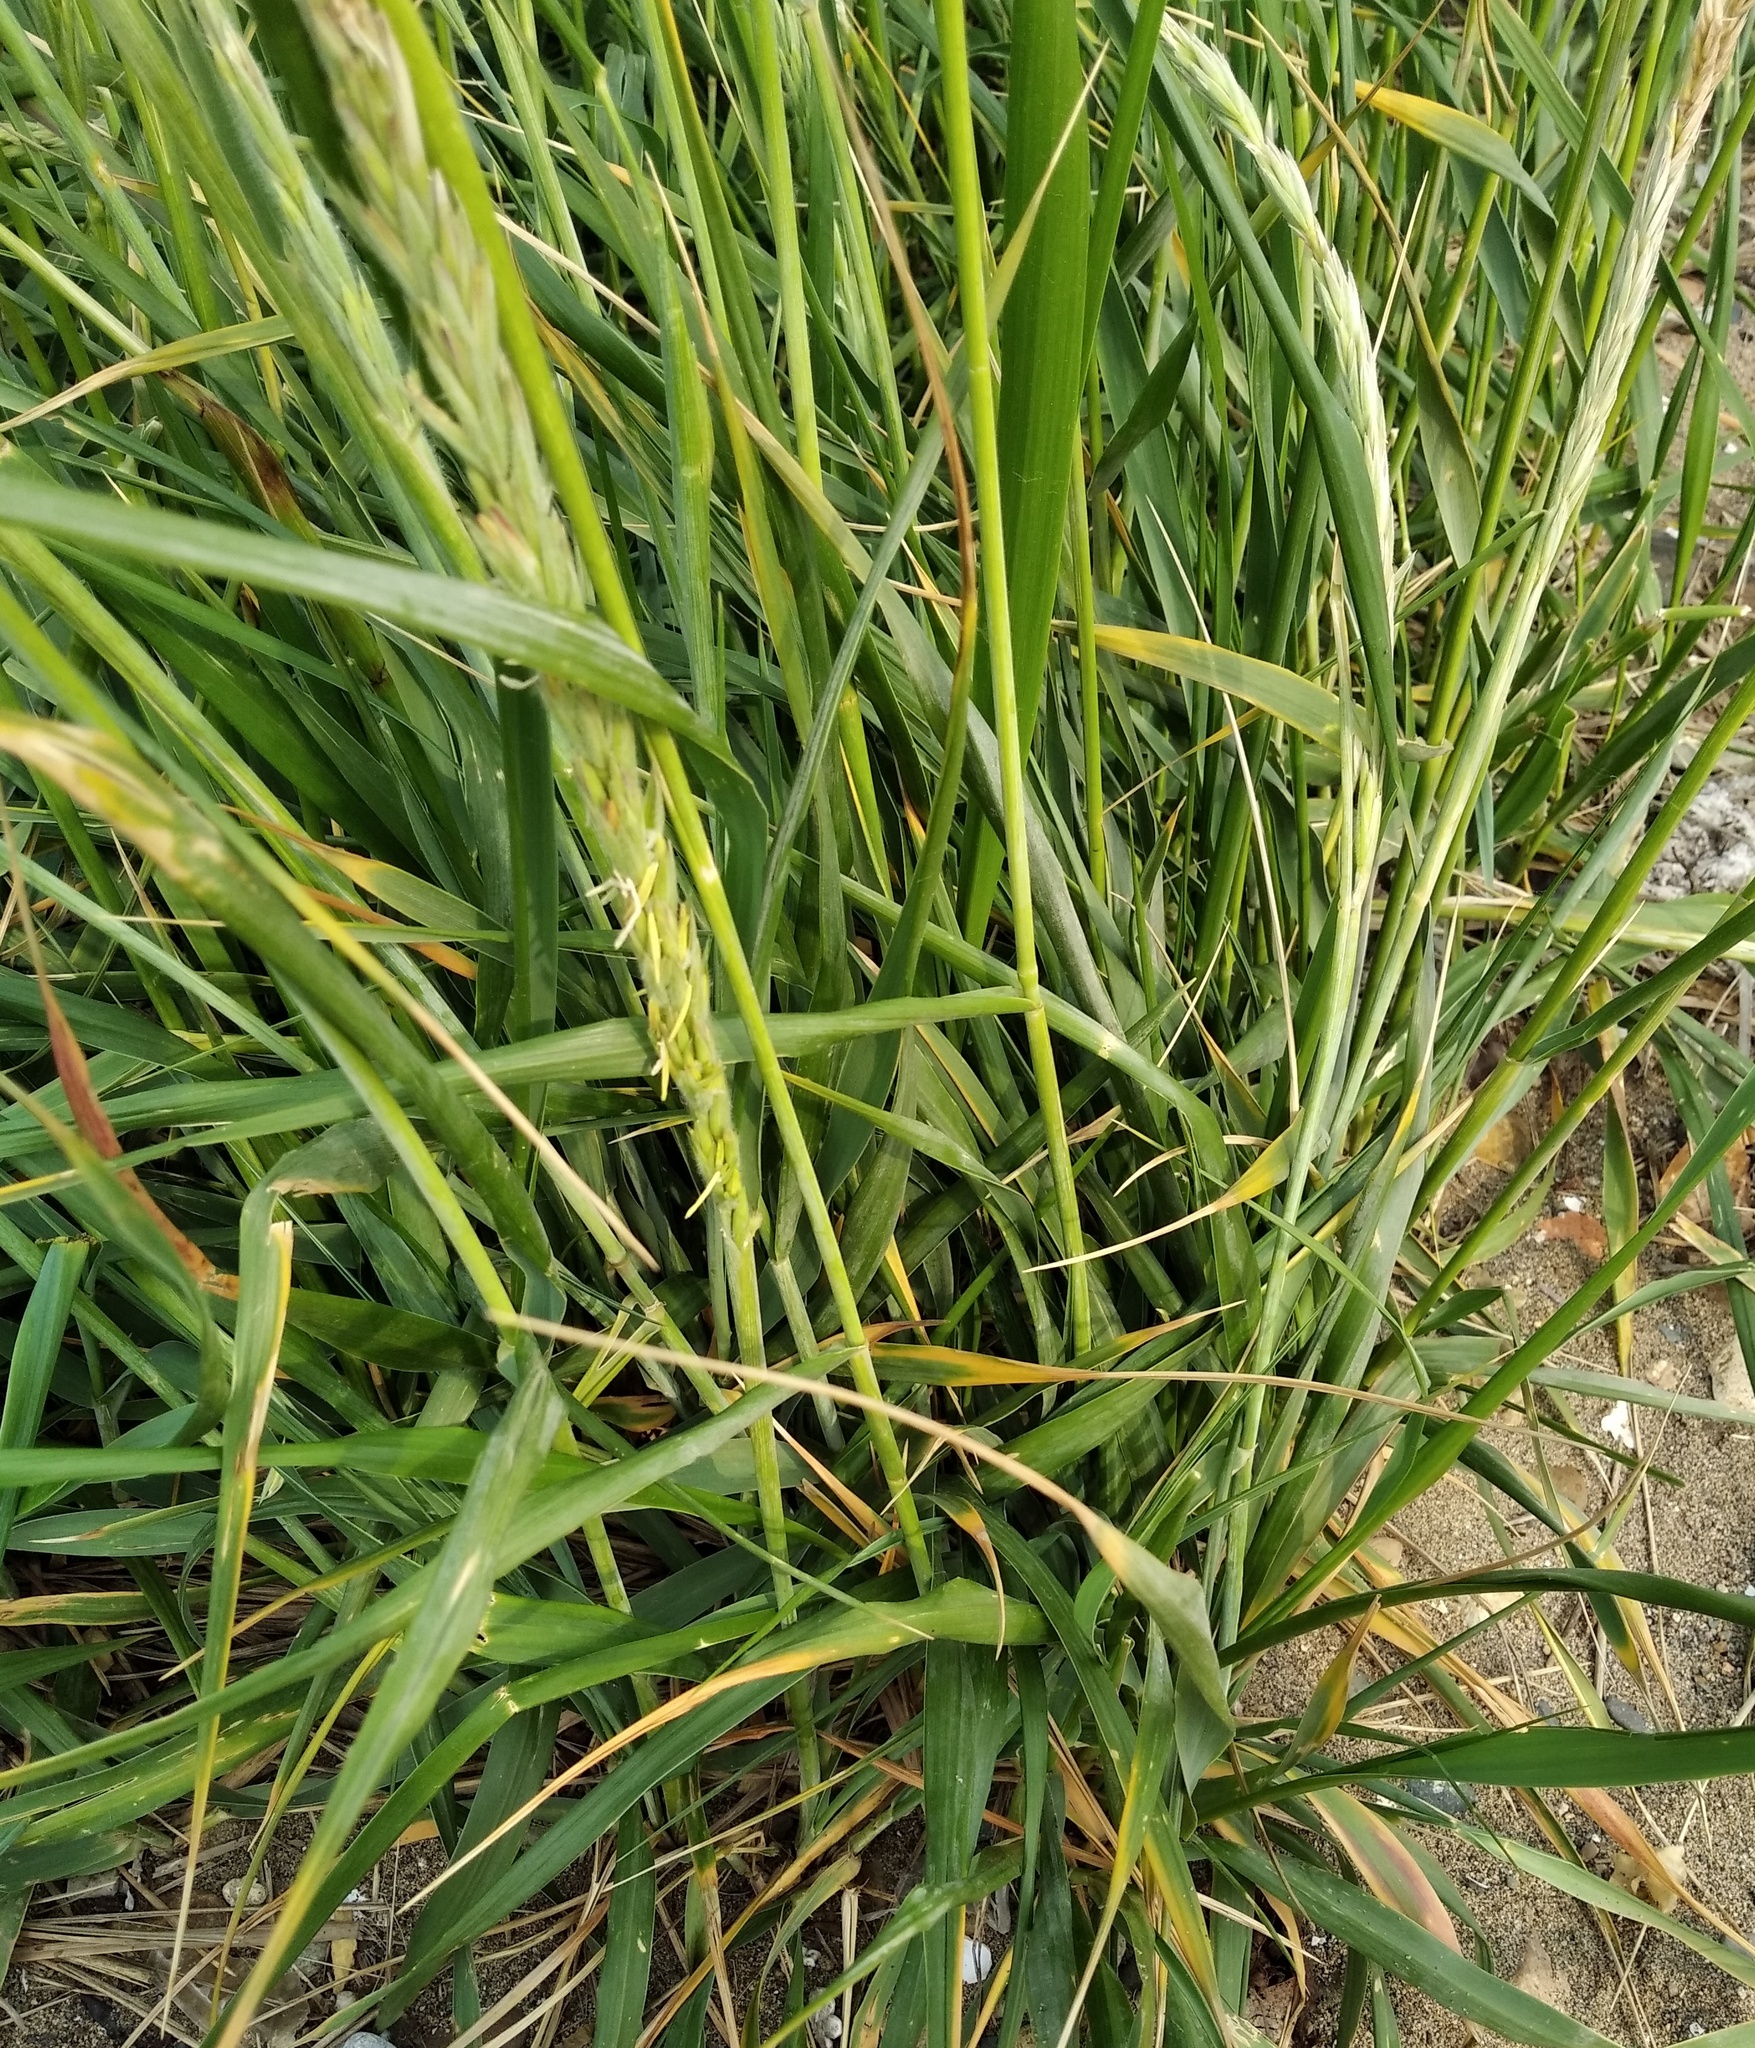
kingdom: Plantae
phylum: Tracheophyta
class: Liliopsida
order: Poales
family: Poaceae
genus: Leymus
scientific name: Leymus mollis
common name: American dune grass
